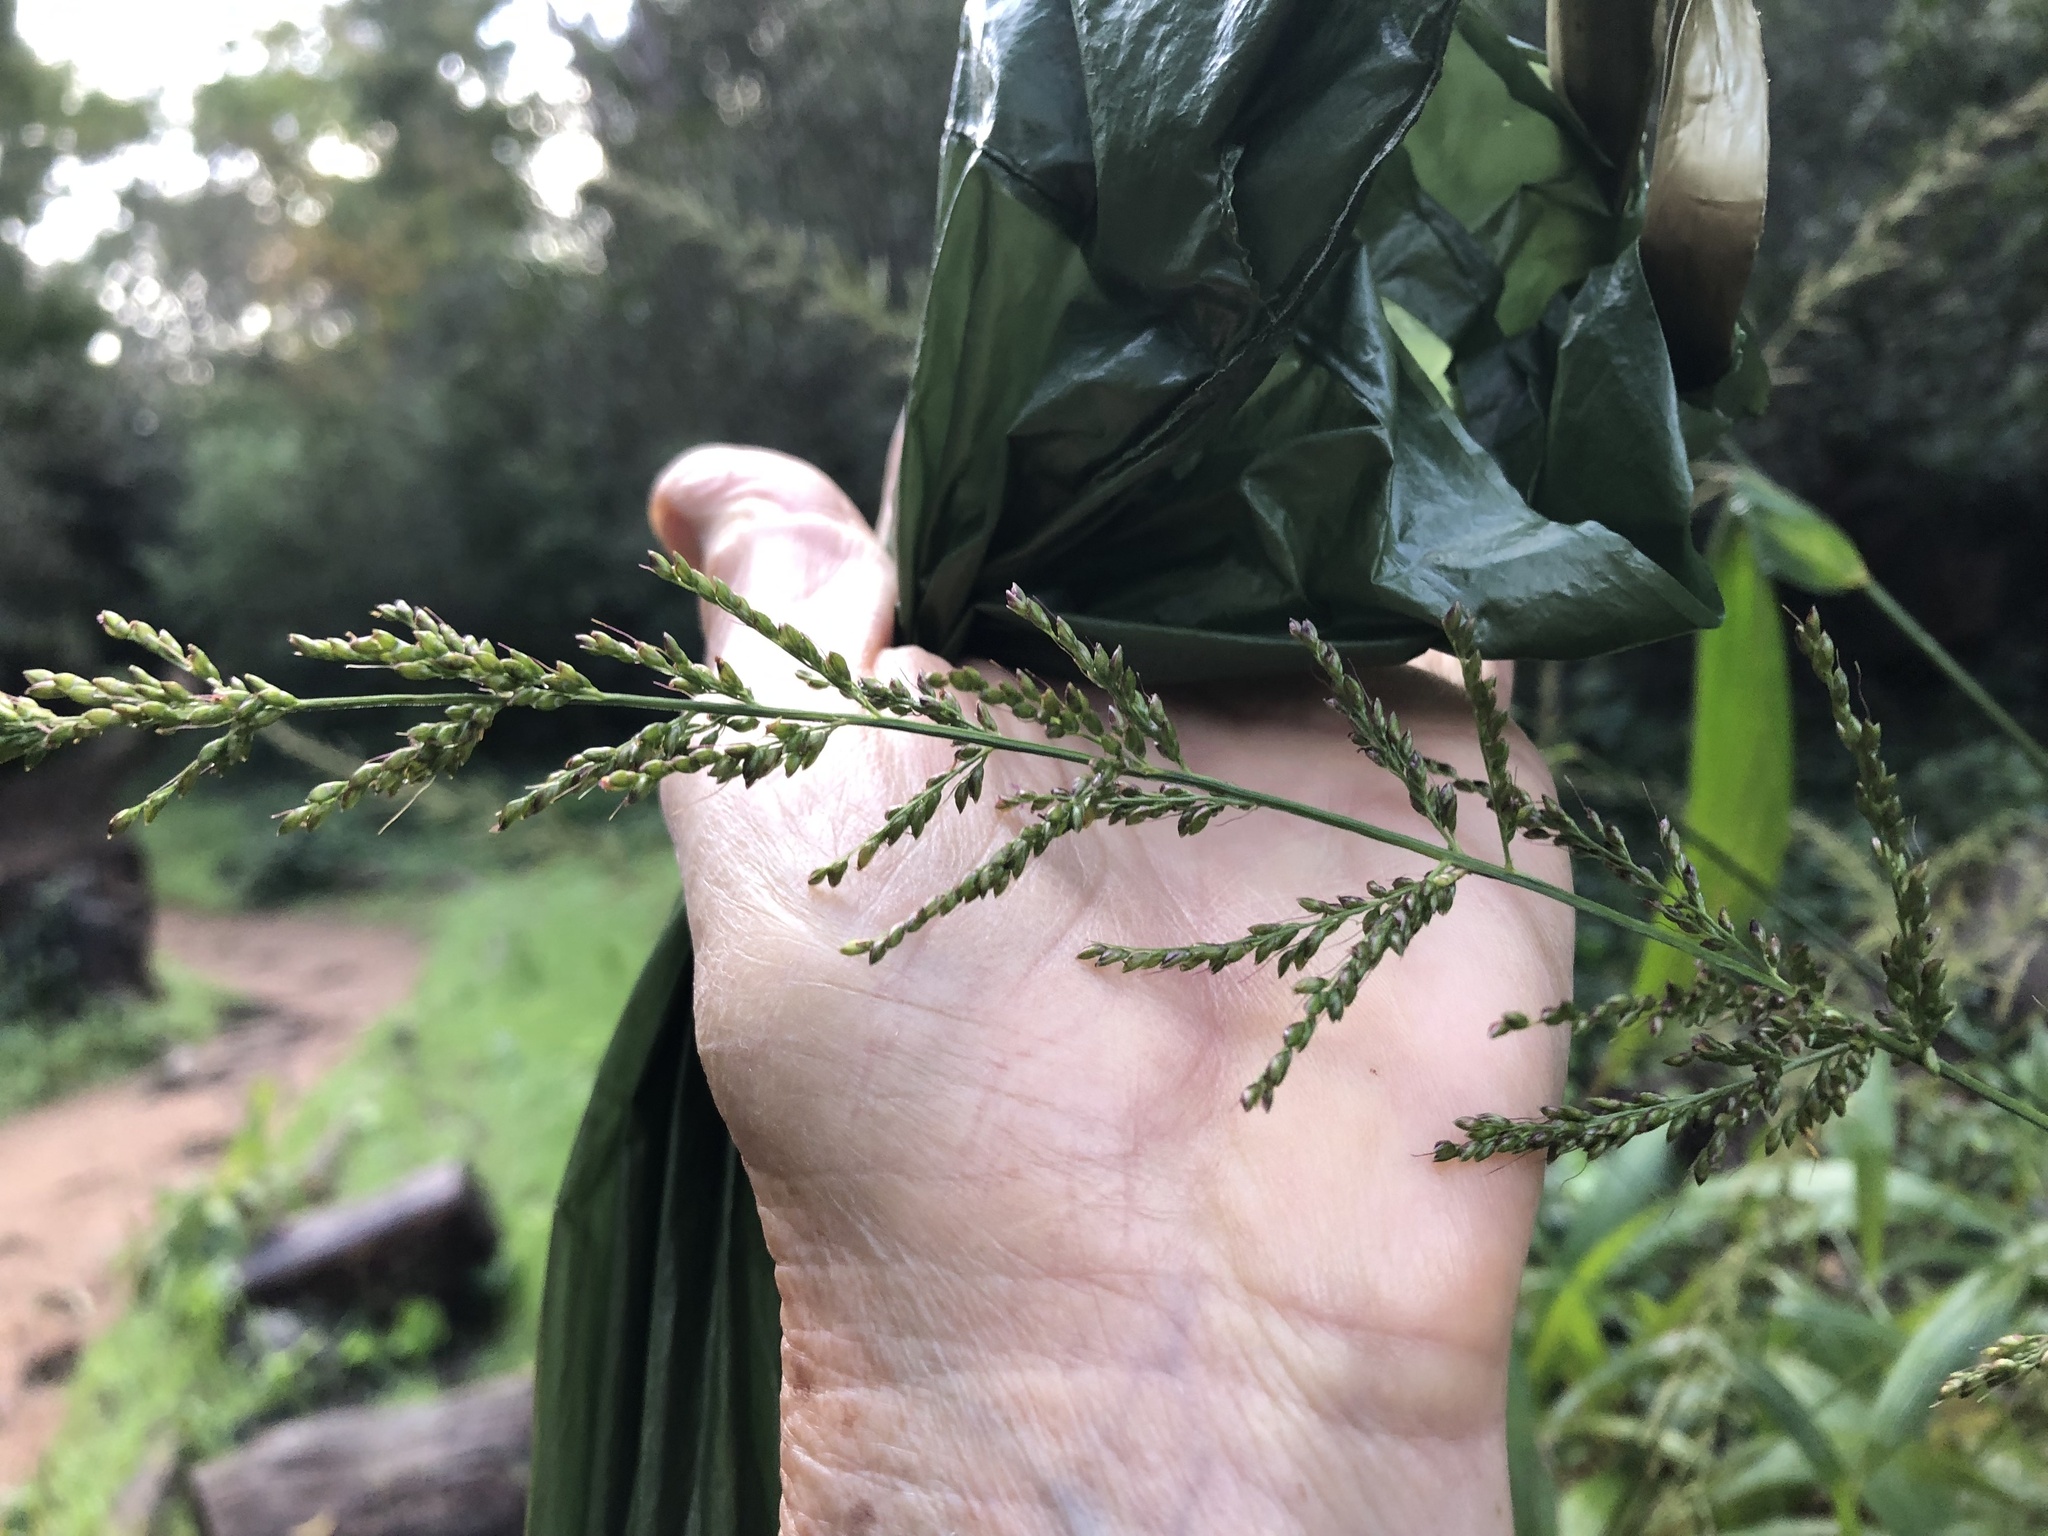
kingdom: Plantae
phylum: Tracheophyta
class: Liliopsida
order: Poales
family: Poaceae
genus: Setaria
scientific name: Setaria megaphylla
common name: Bigleaf bristlegrass
